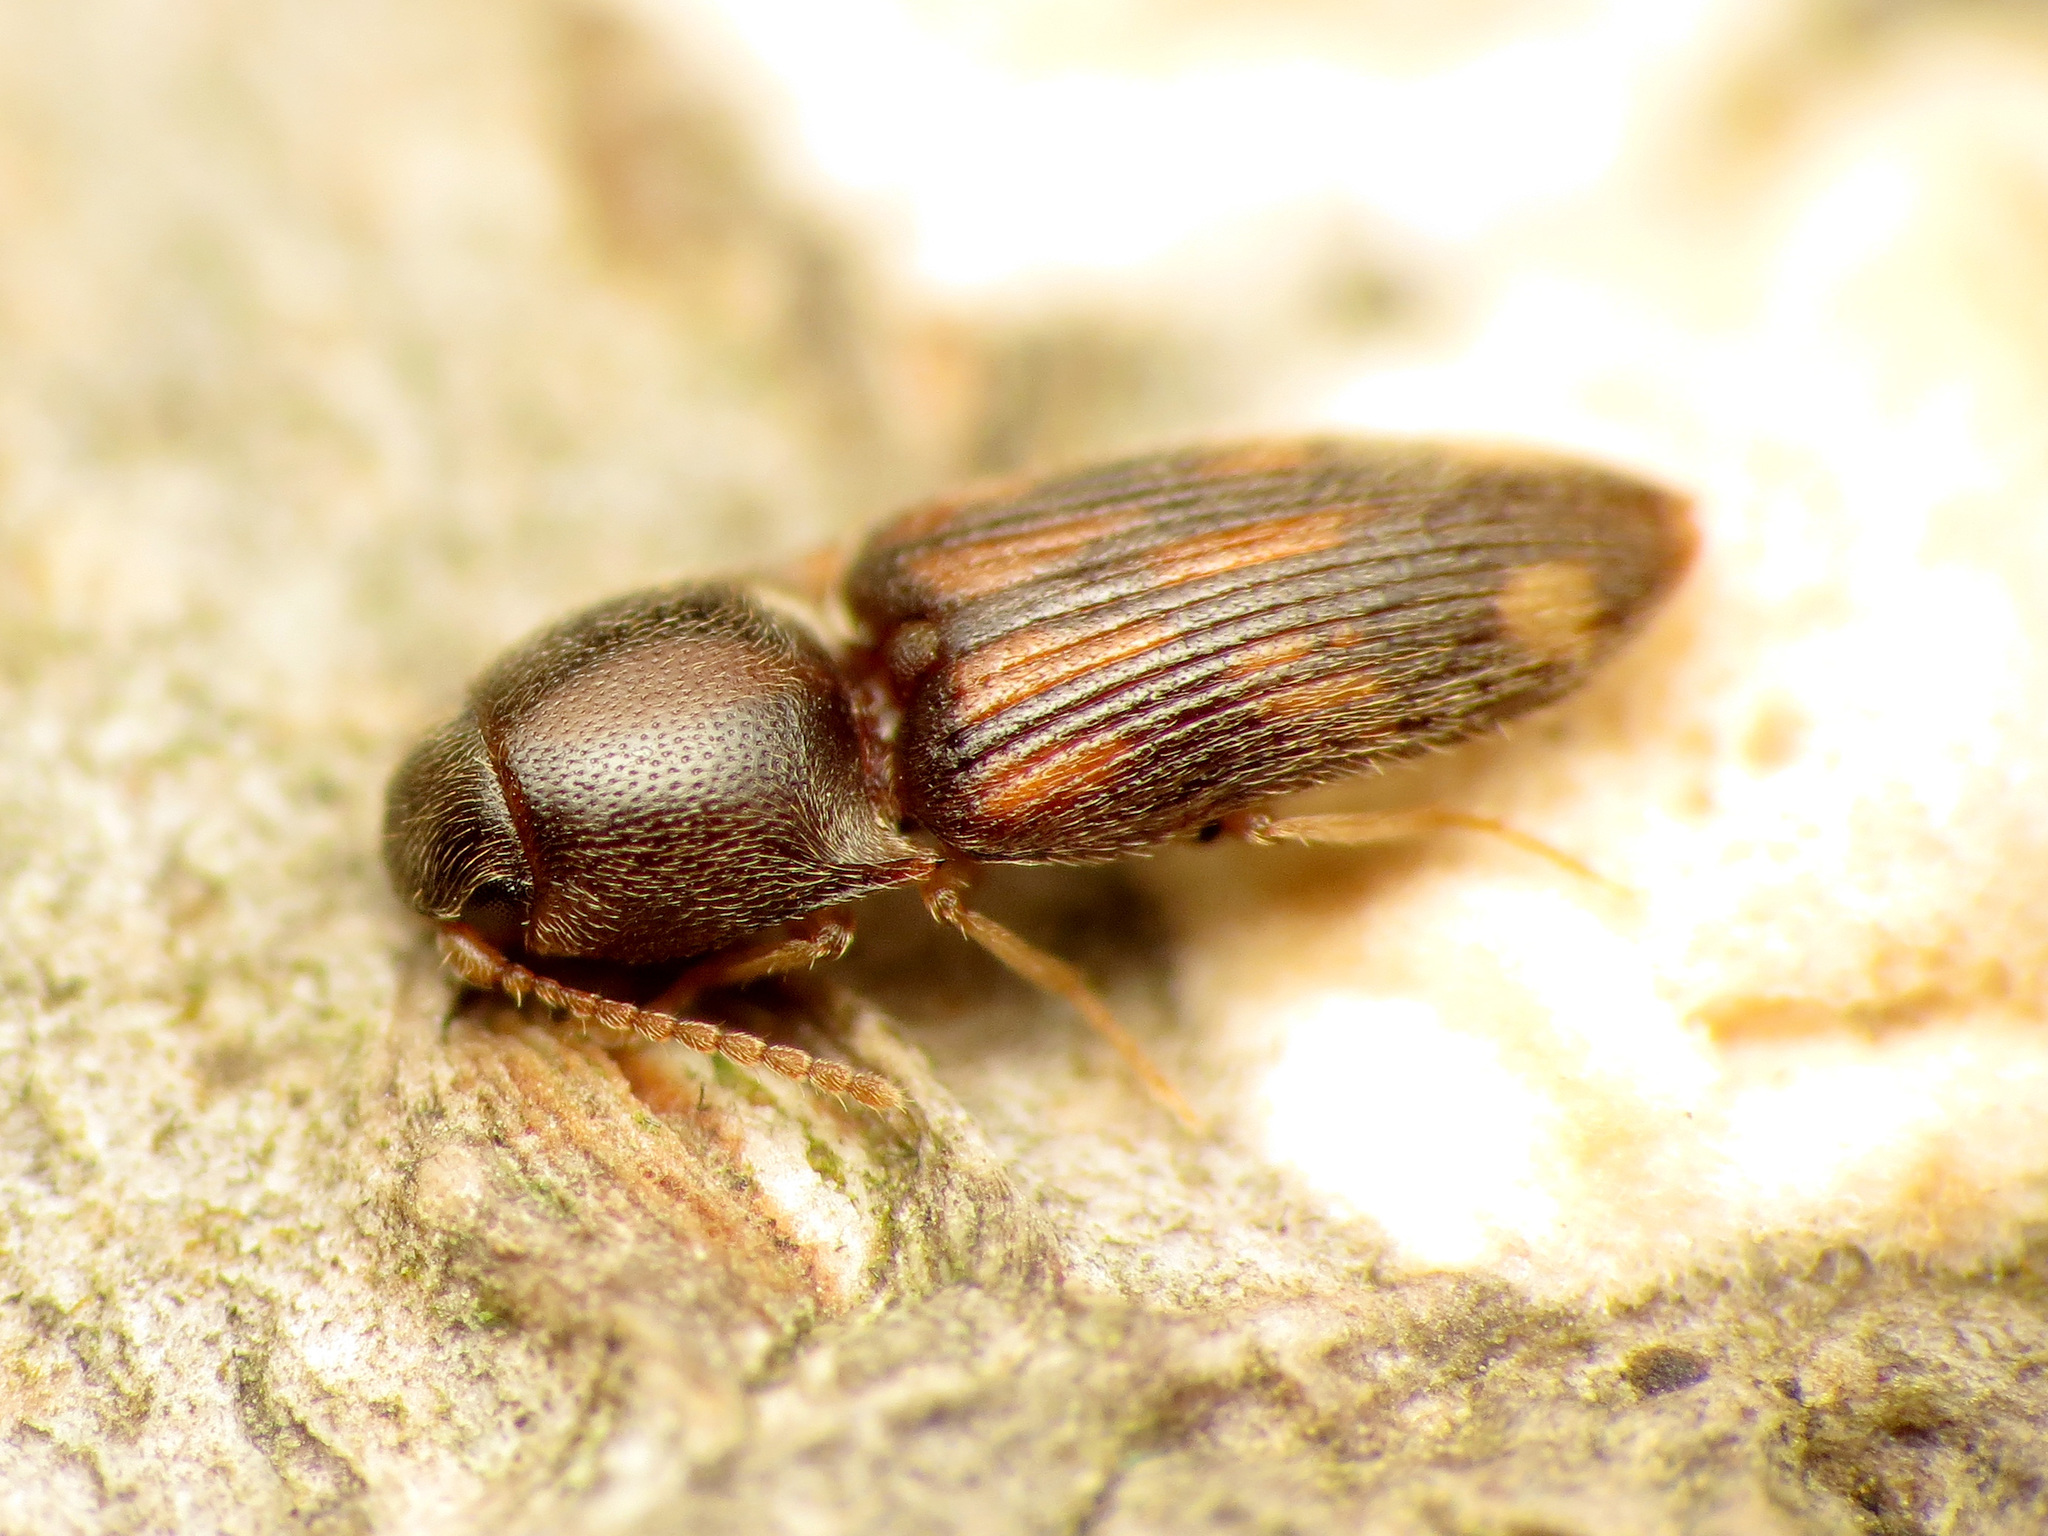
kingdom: Animalia
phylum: Arthropoda
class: Insecta
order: Coleoptera
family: Elateridae
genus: Monocrepidius
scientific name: Monocrepidius bellus
